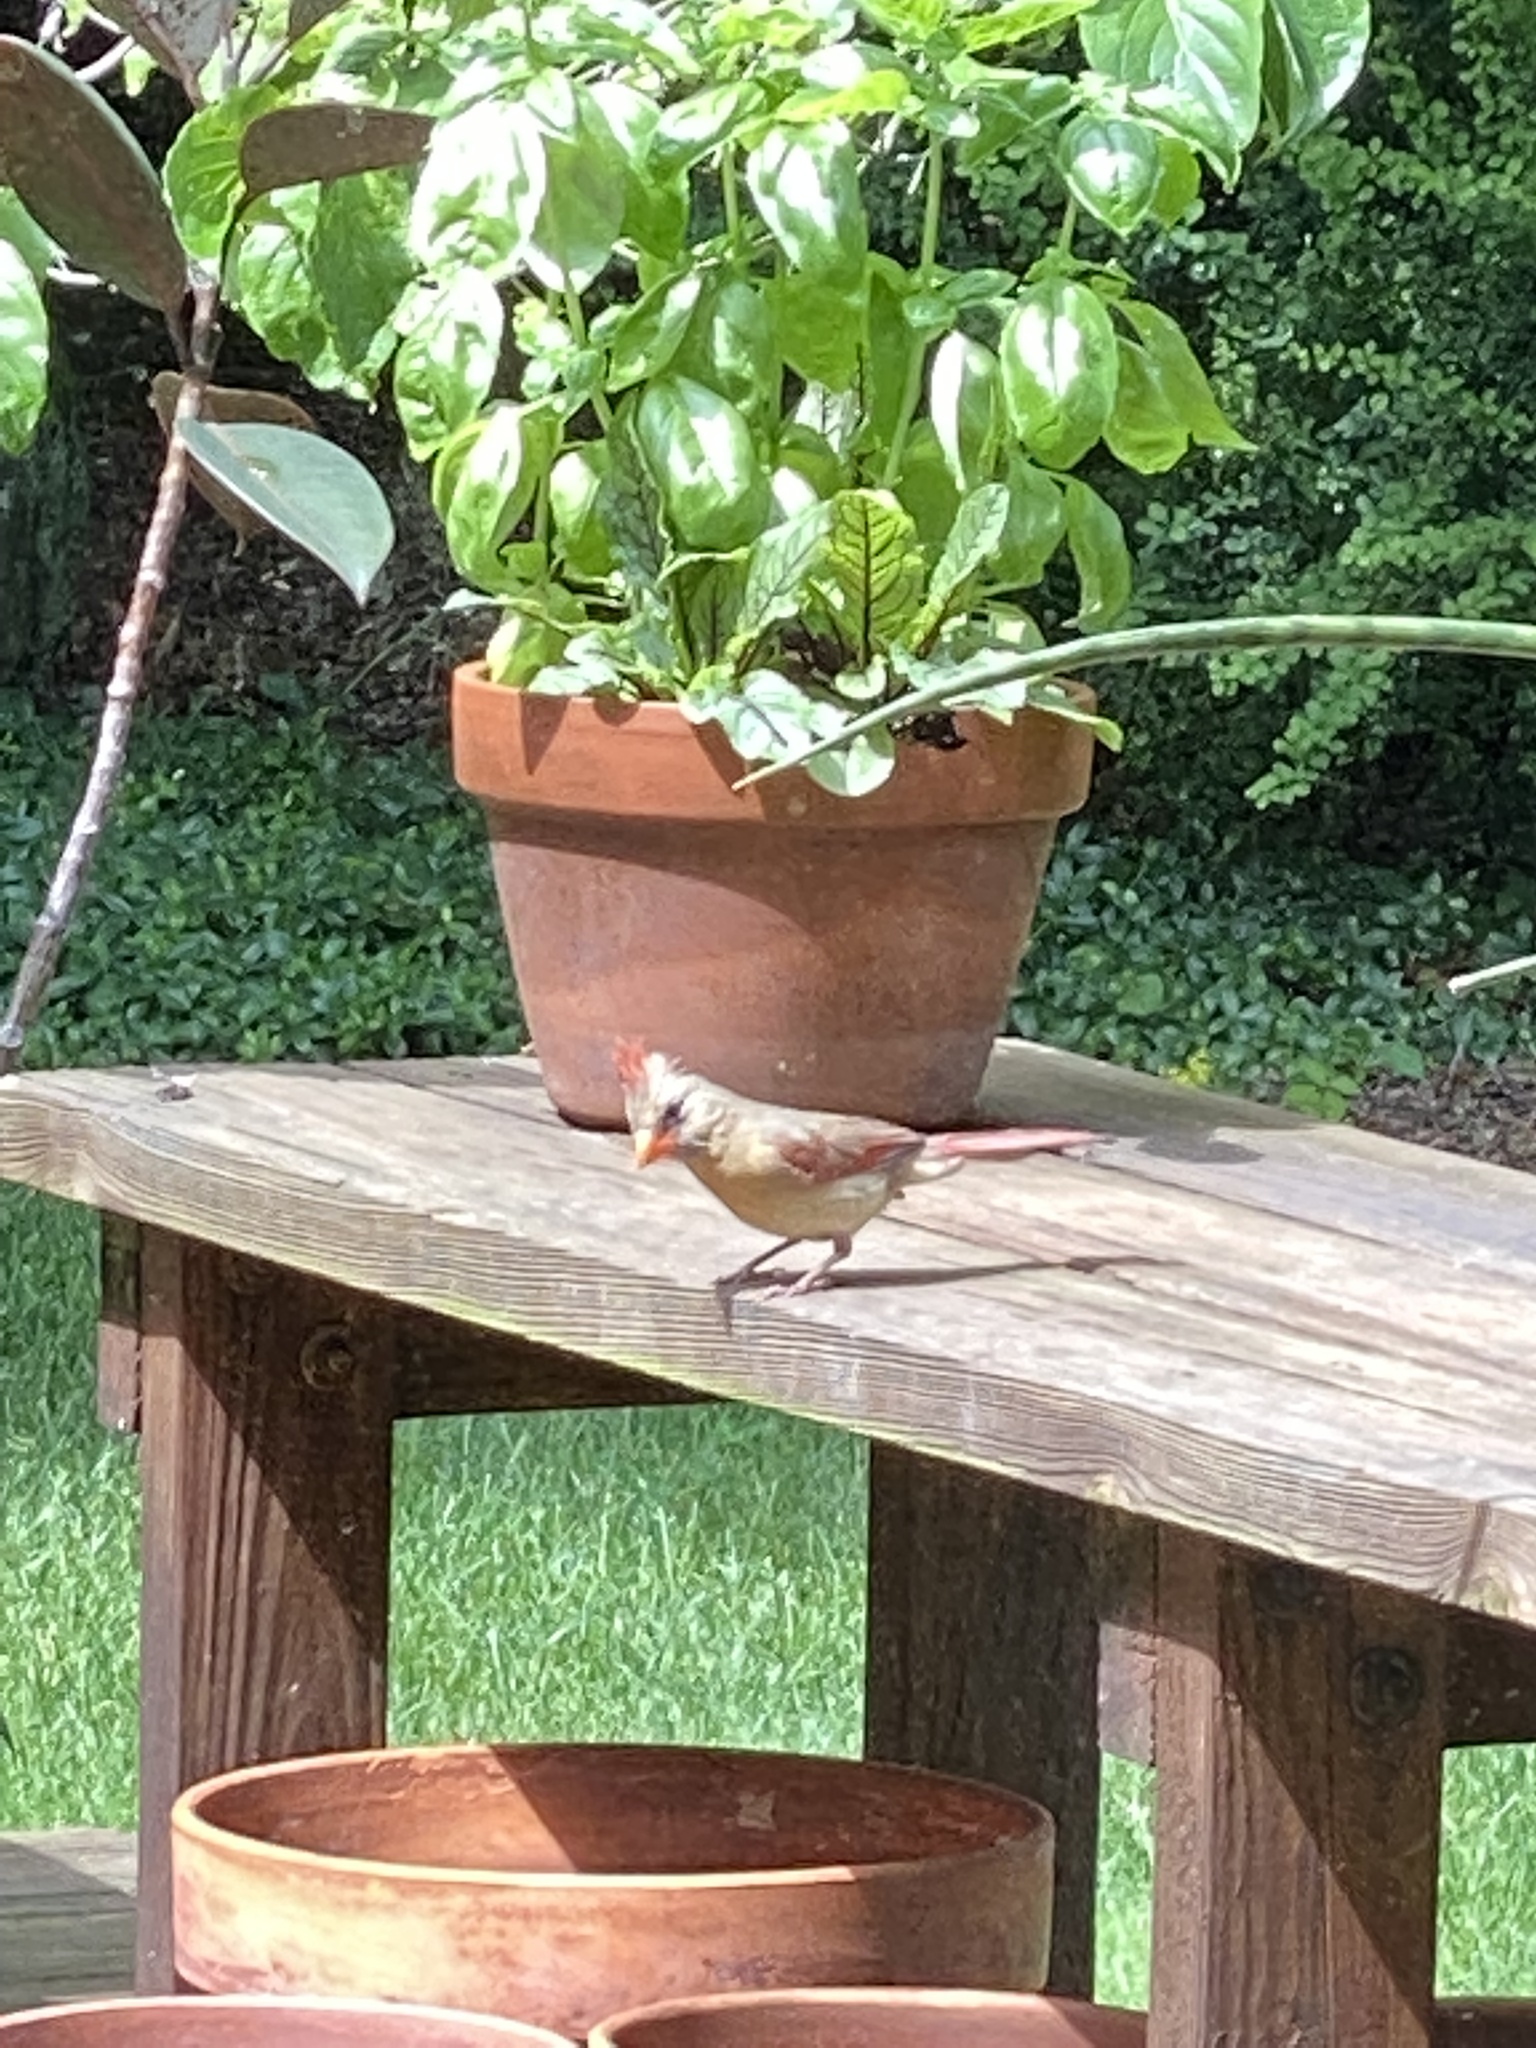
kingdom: Animalia
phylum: Chordata
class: Aves
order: Passeriformes
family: Cardinalidae
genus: Cardinalis
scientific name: Cardinalis cardinalis
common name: Northern cardinal
